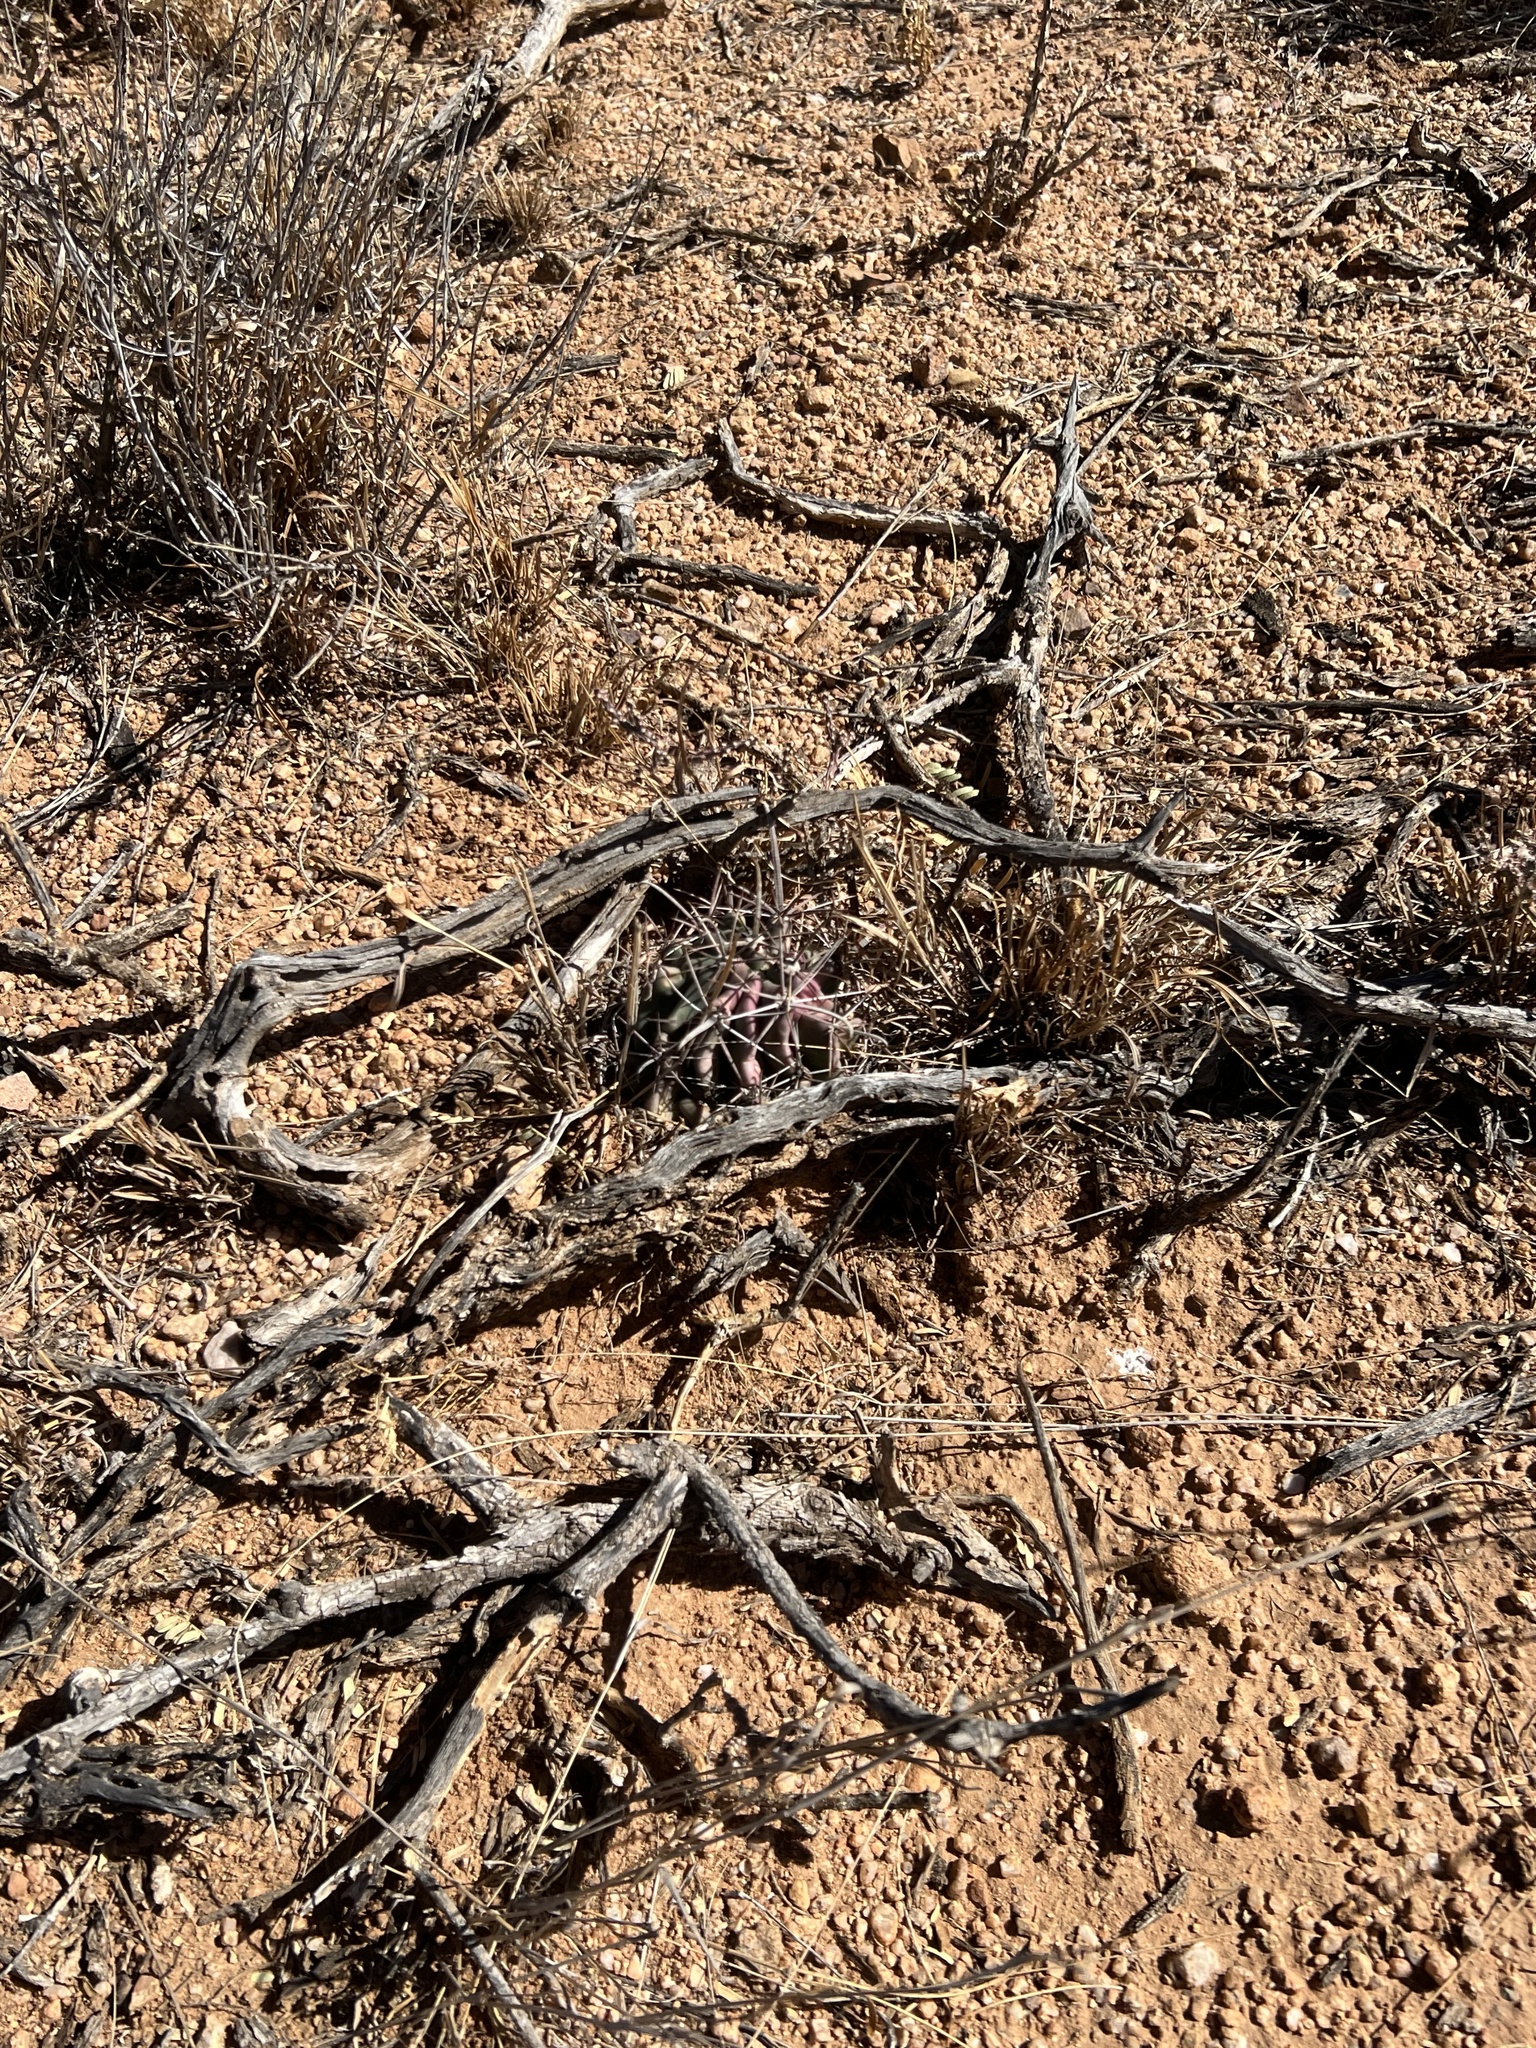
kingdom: Plantae
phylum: Tracheophyta
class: Magnoliopsida
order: Caryophyllales
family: Cactaceae
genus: Ferocactus
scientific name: Ferocactus wislizeni
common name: Candy barrel cactus
